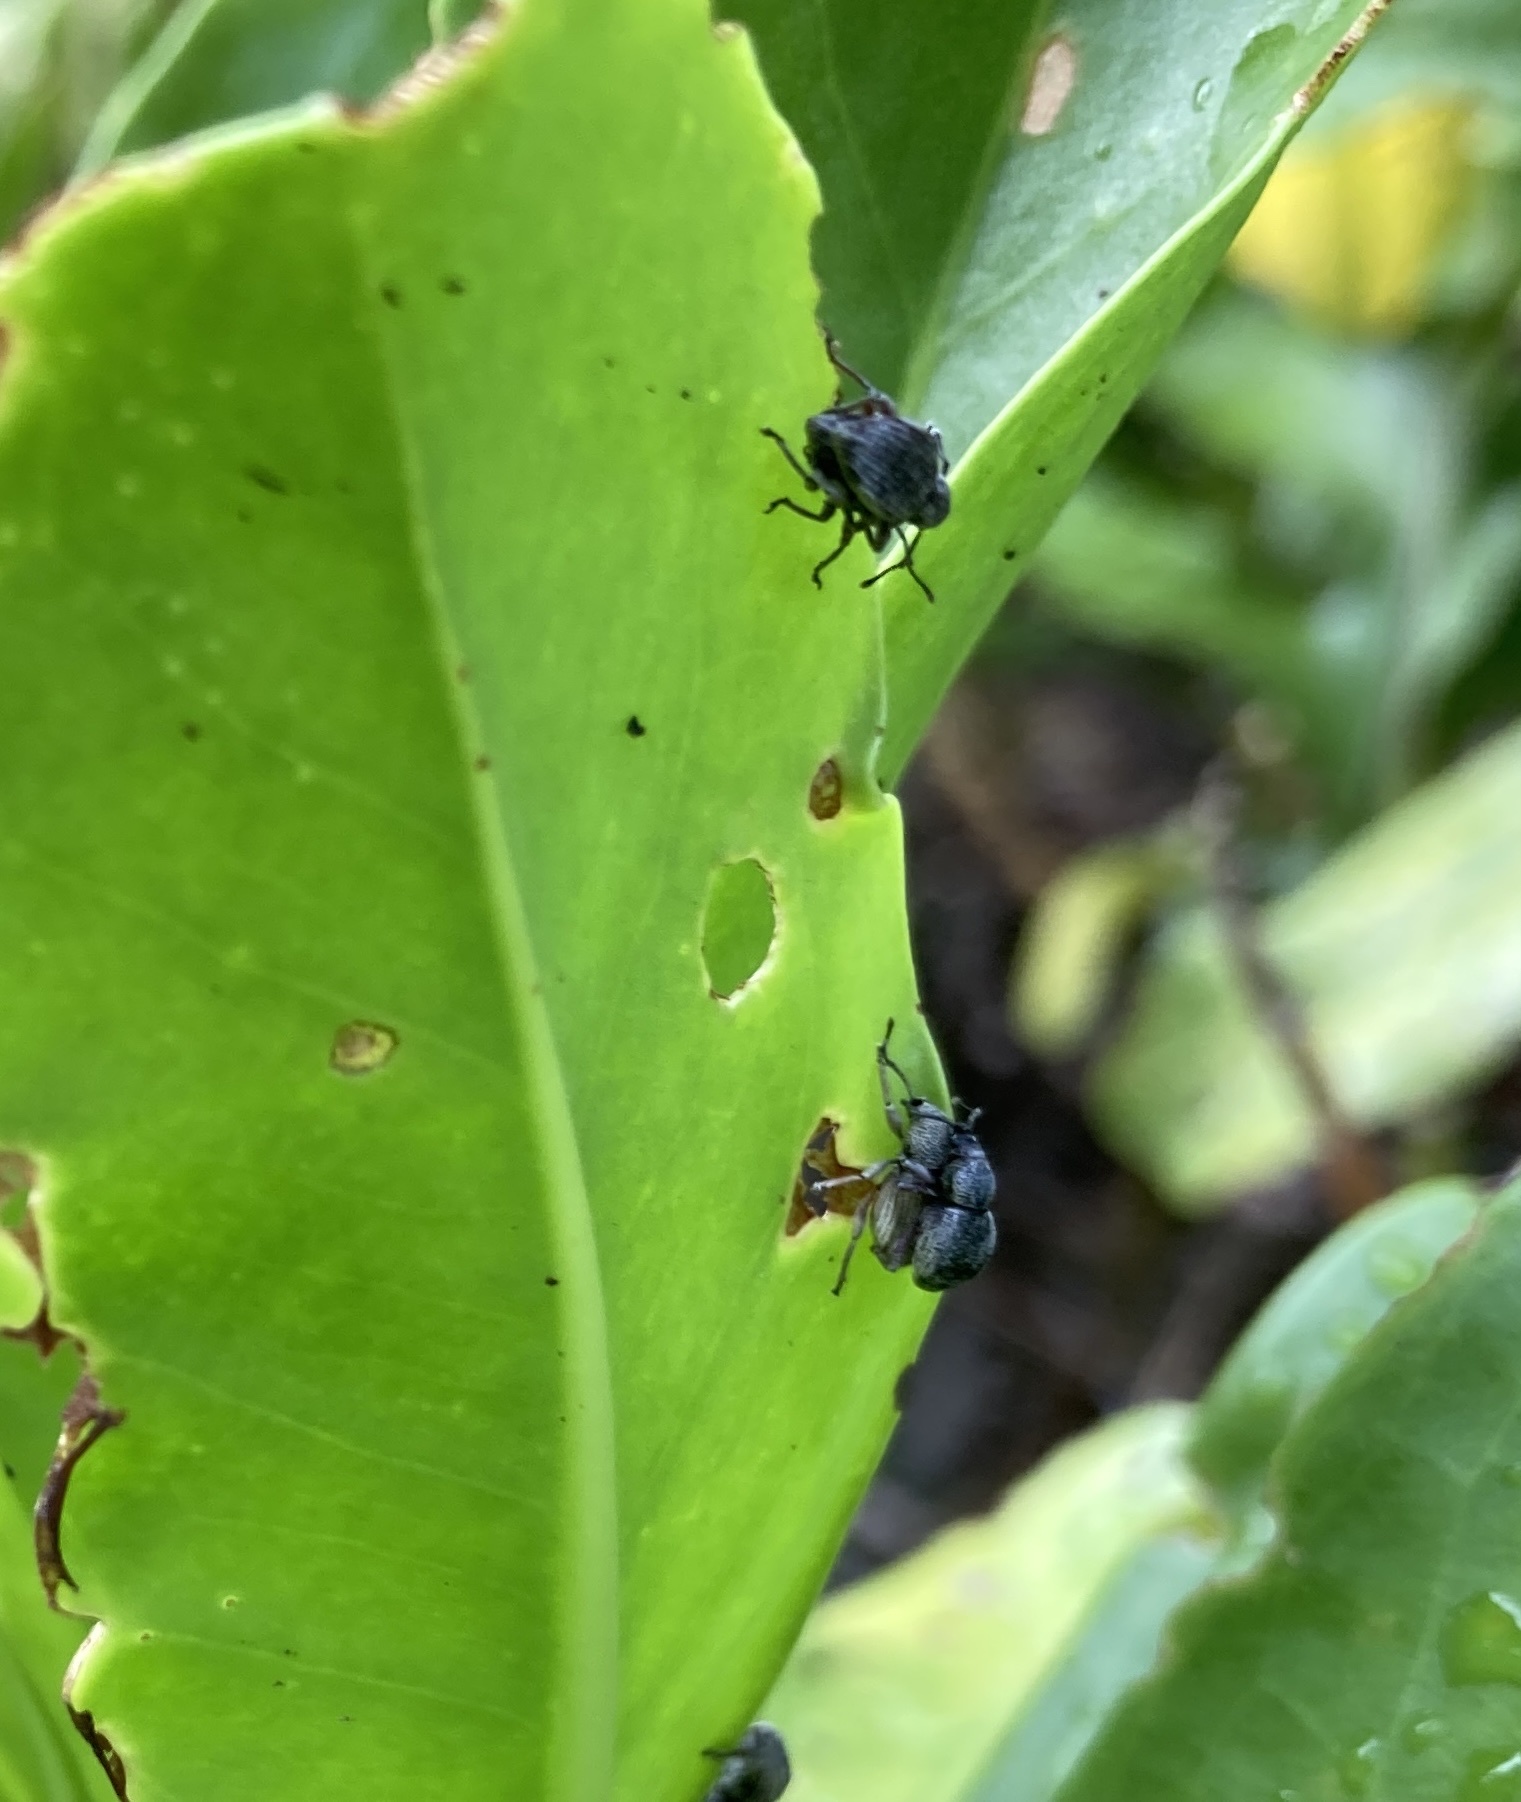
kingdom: Animalia
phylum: Arthropoda
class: Insecta
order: Coleoptera
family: Curculionidae
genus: Platysimus
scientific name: Platysimus insularis
